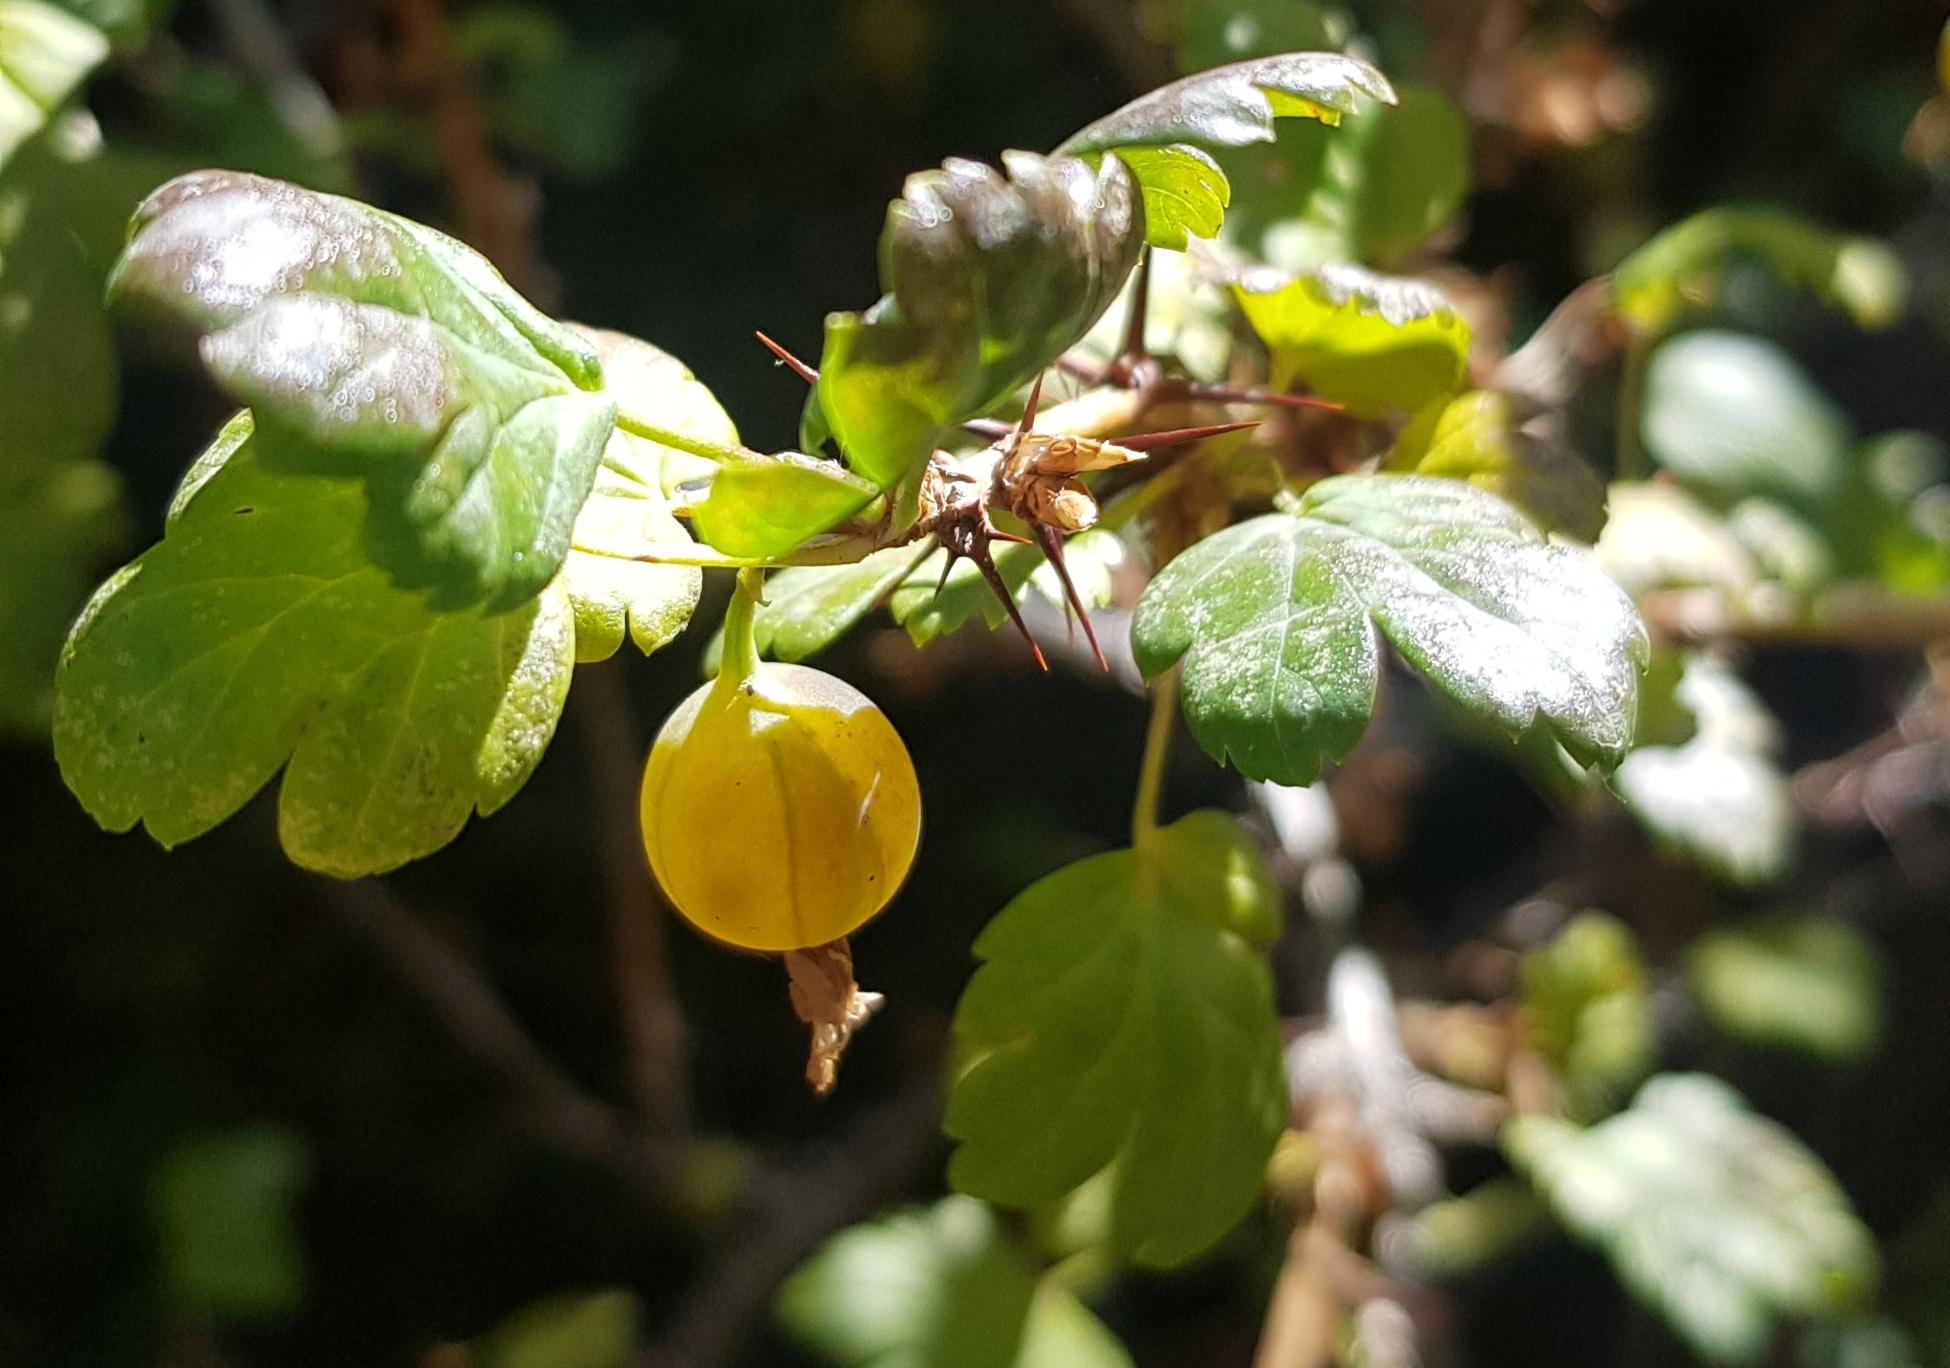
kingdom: Plantae
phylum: Tracheophyta
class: Magnoliopsida
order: Saxifragales
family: Grossulariaceae
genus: Ribes
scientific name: Ribes aciculare
